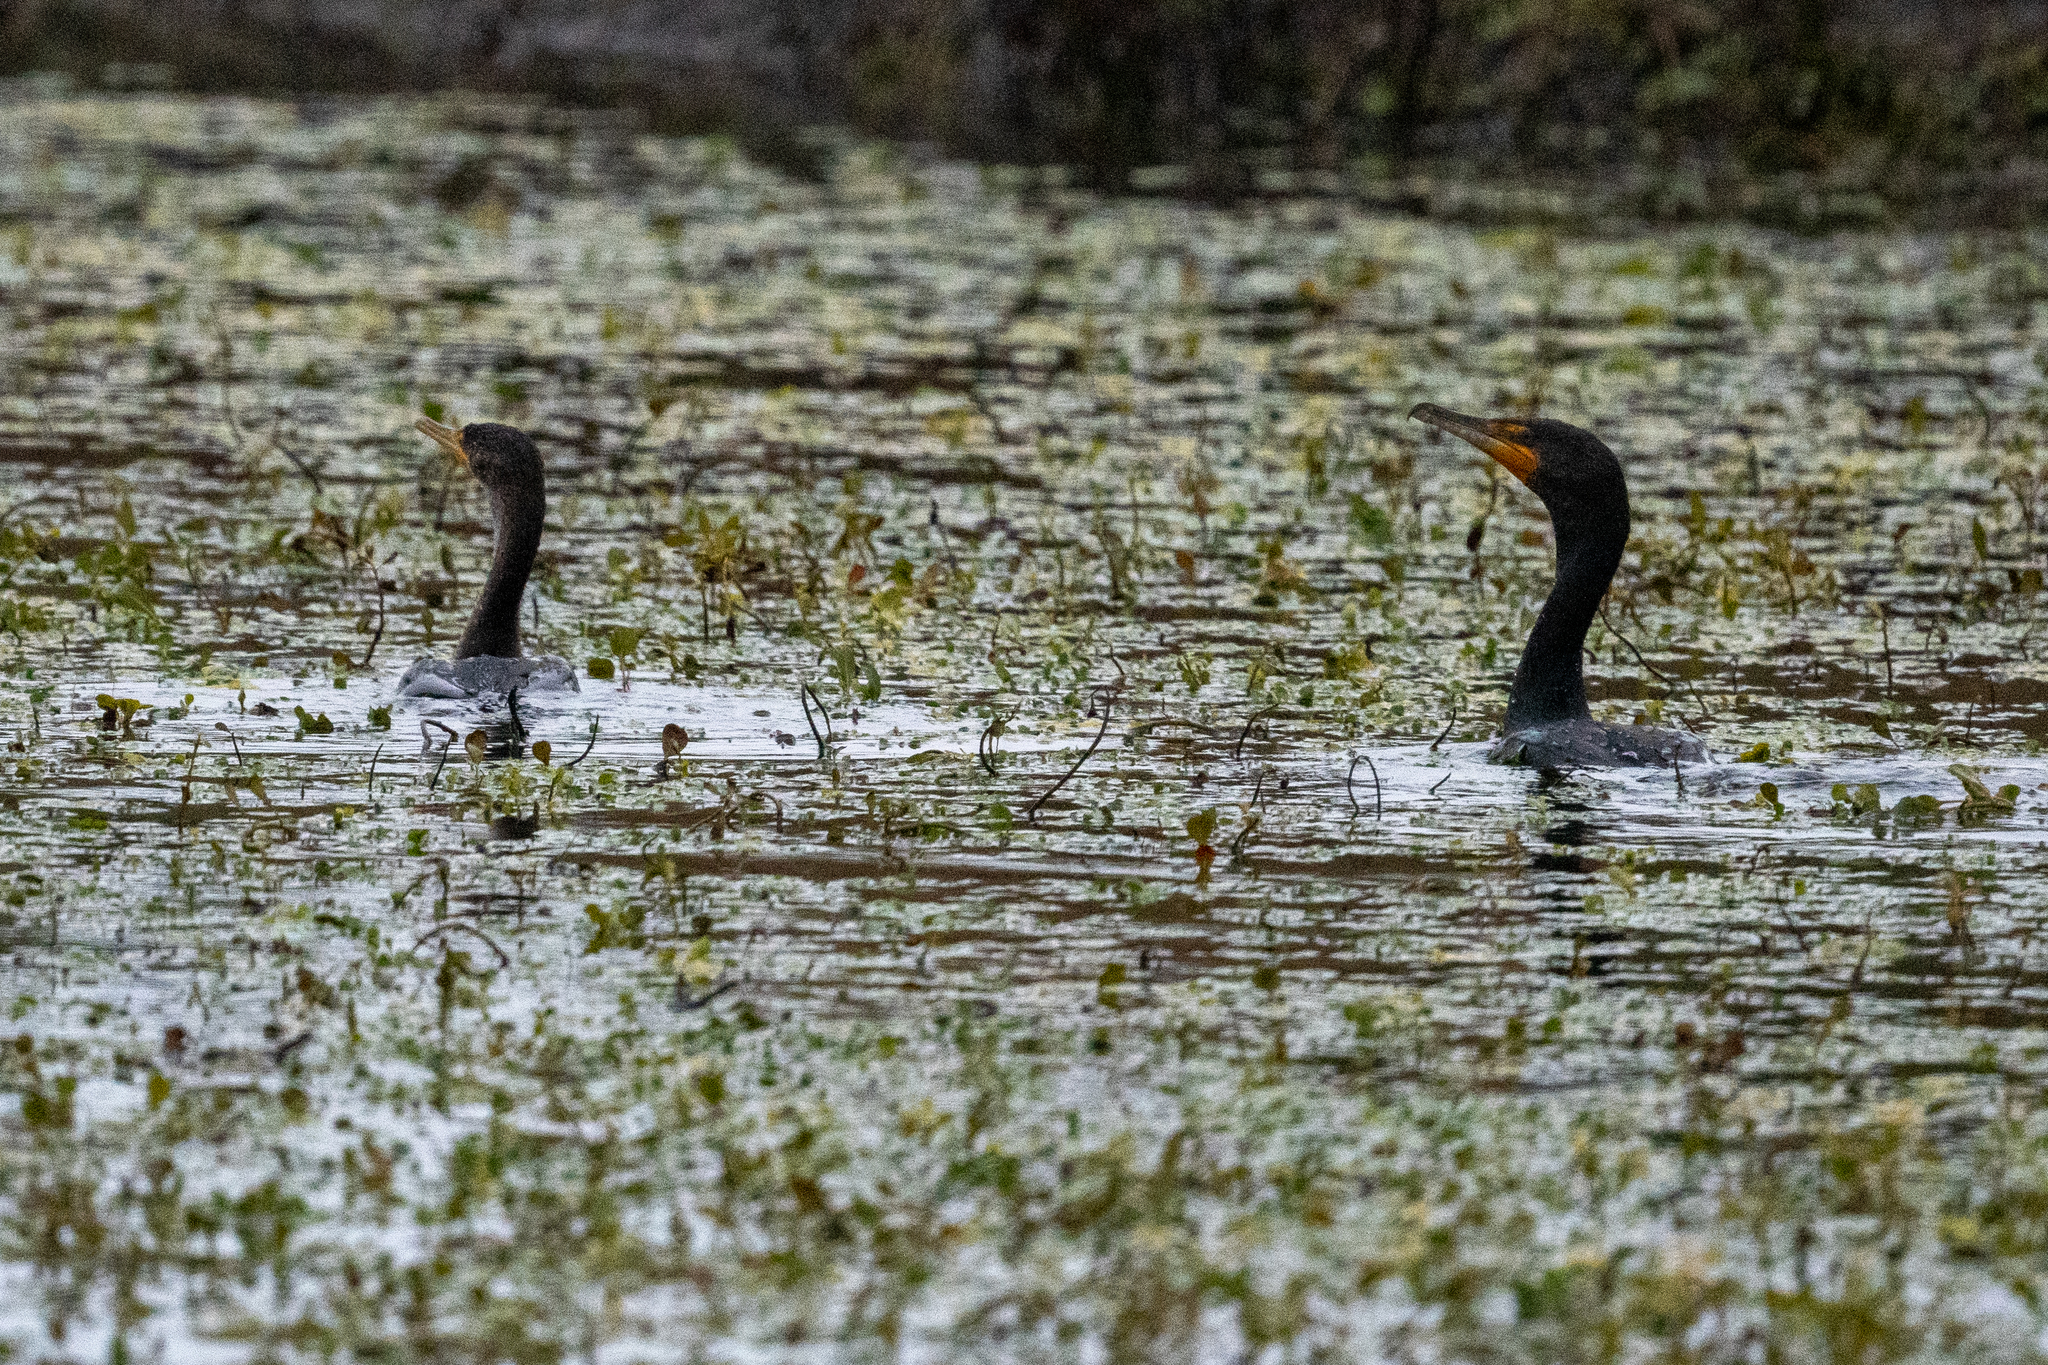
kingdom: Animalia
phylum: Chordata
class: Aves
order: Suliformes
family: Phalacrocoracidae
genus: Phalacrocorax
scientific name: Phalacrocorax auritus
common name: Double-crested cormorant
